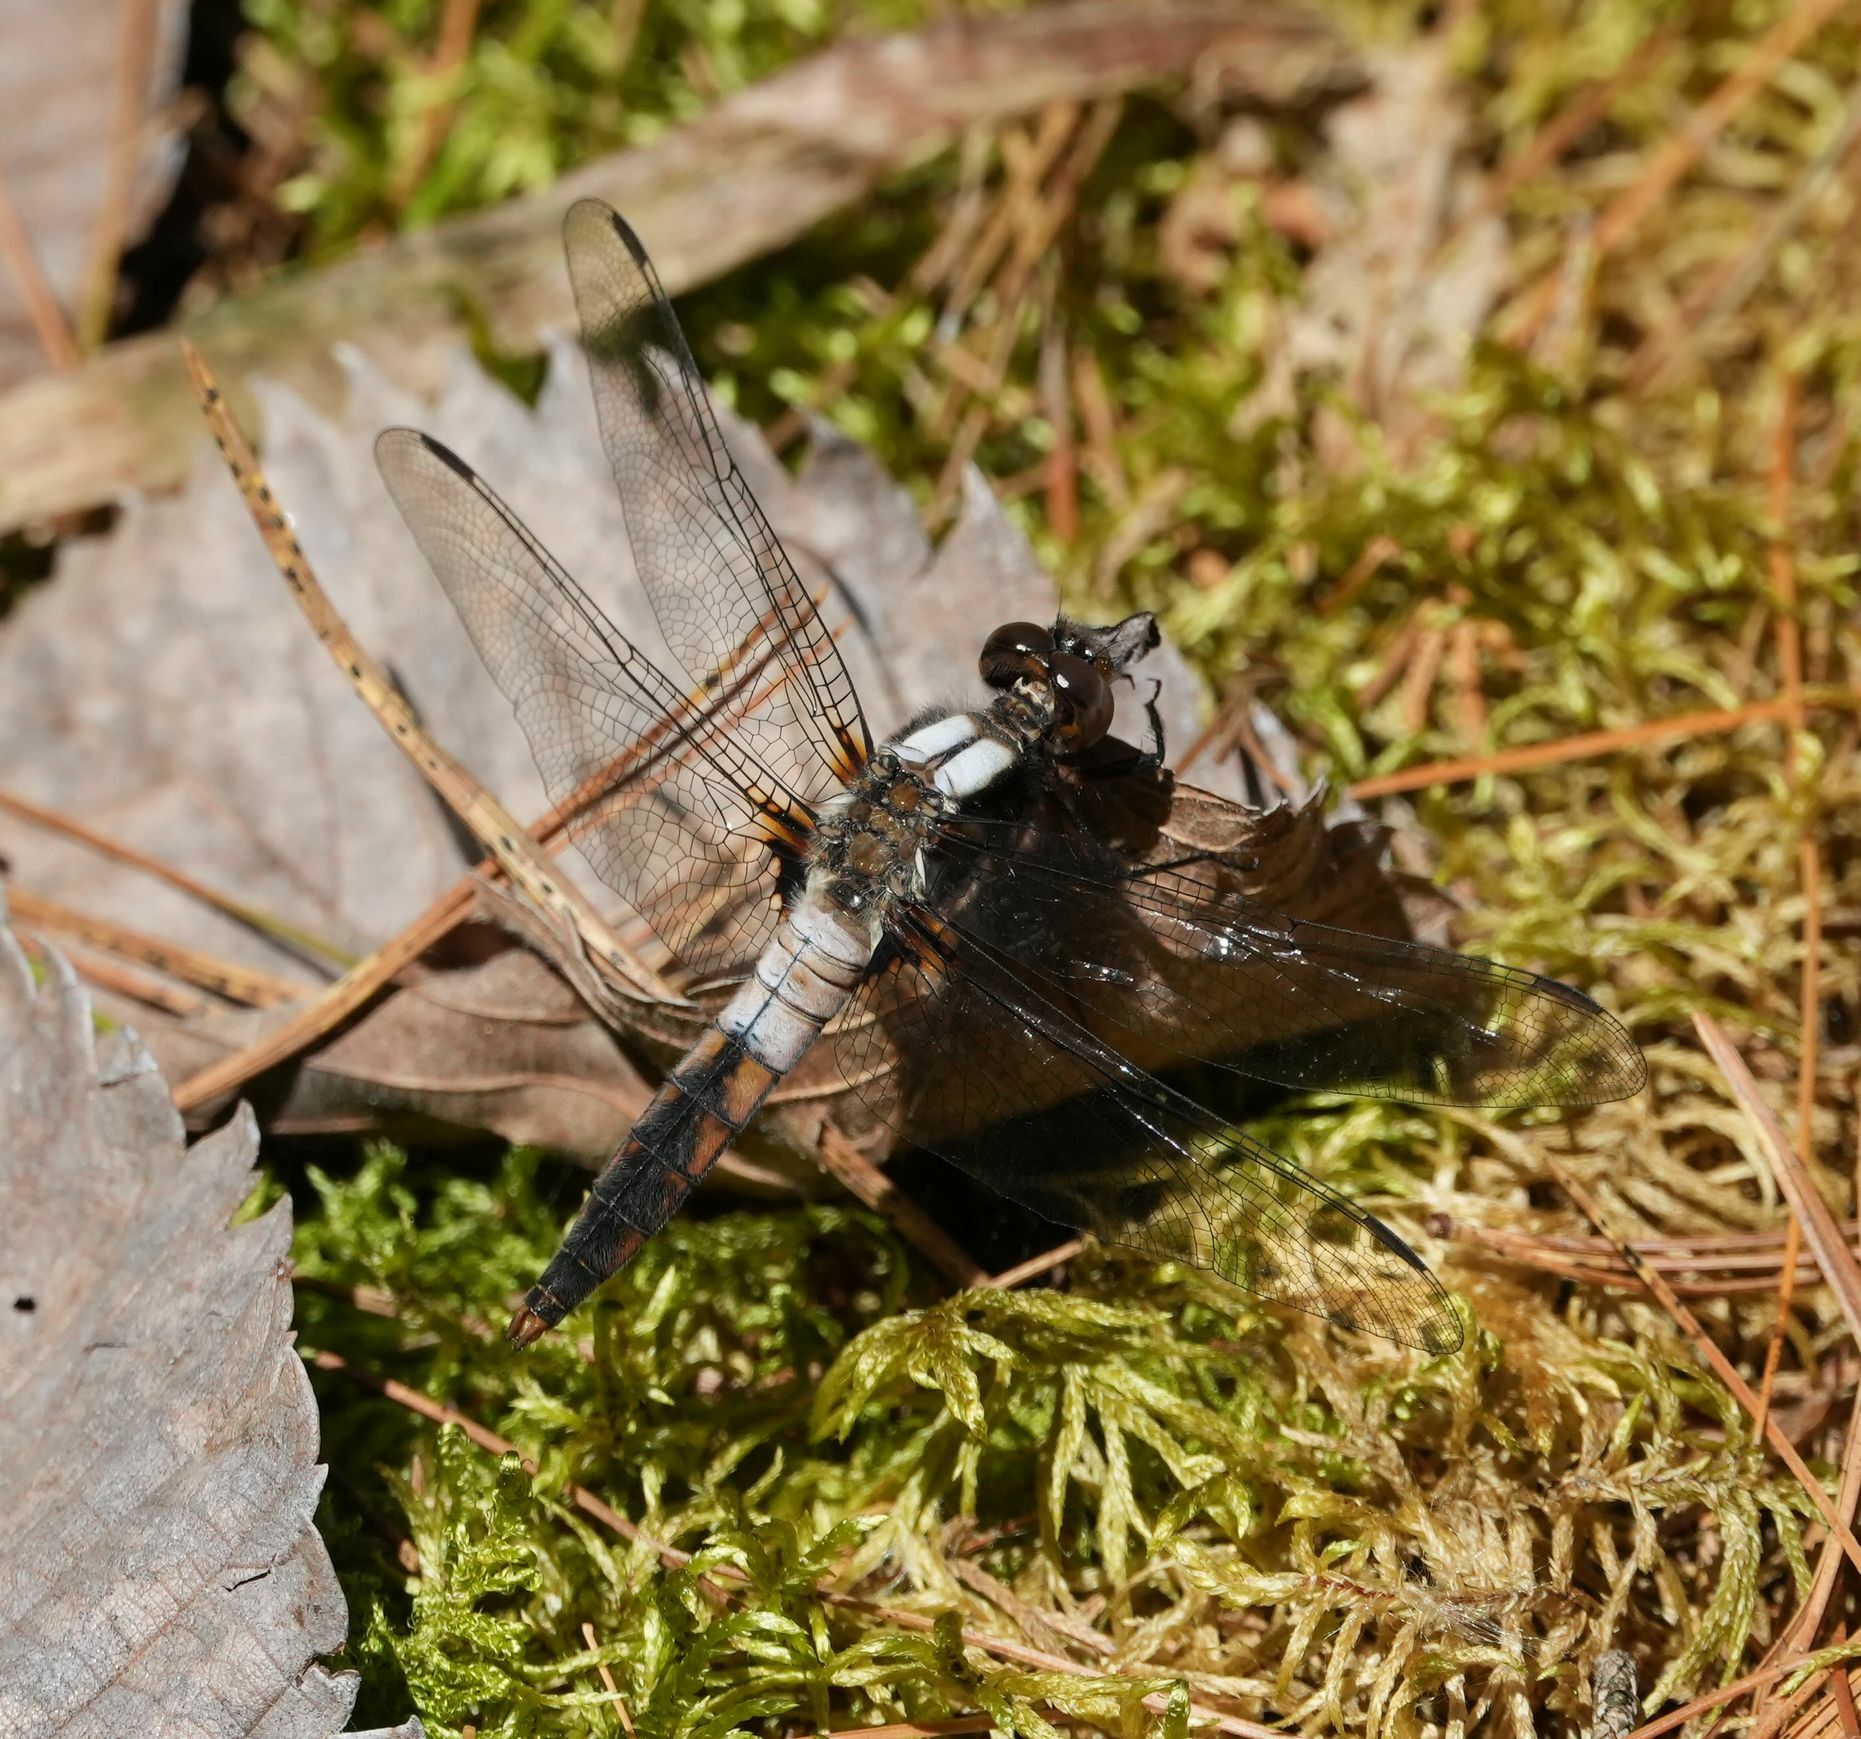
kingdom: Animalia
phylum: Arthropoda
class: Insecta
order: Odonata
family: Libellulidae
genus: Ladona
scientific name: Ladona julia
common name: Chalk-fronted corporal
